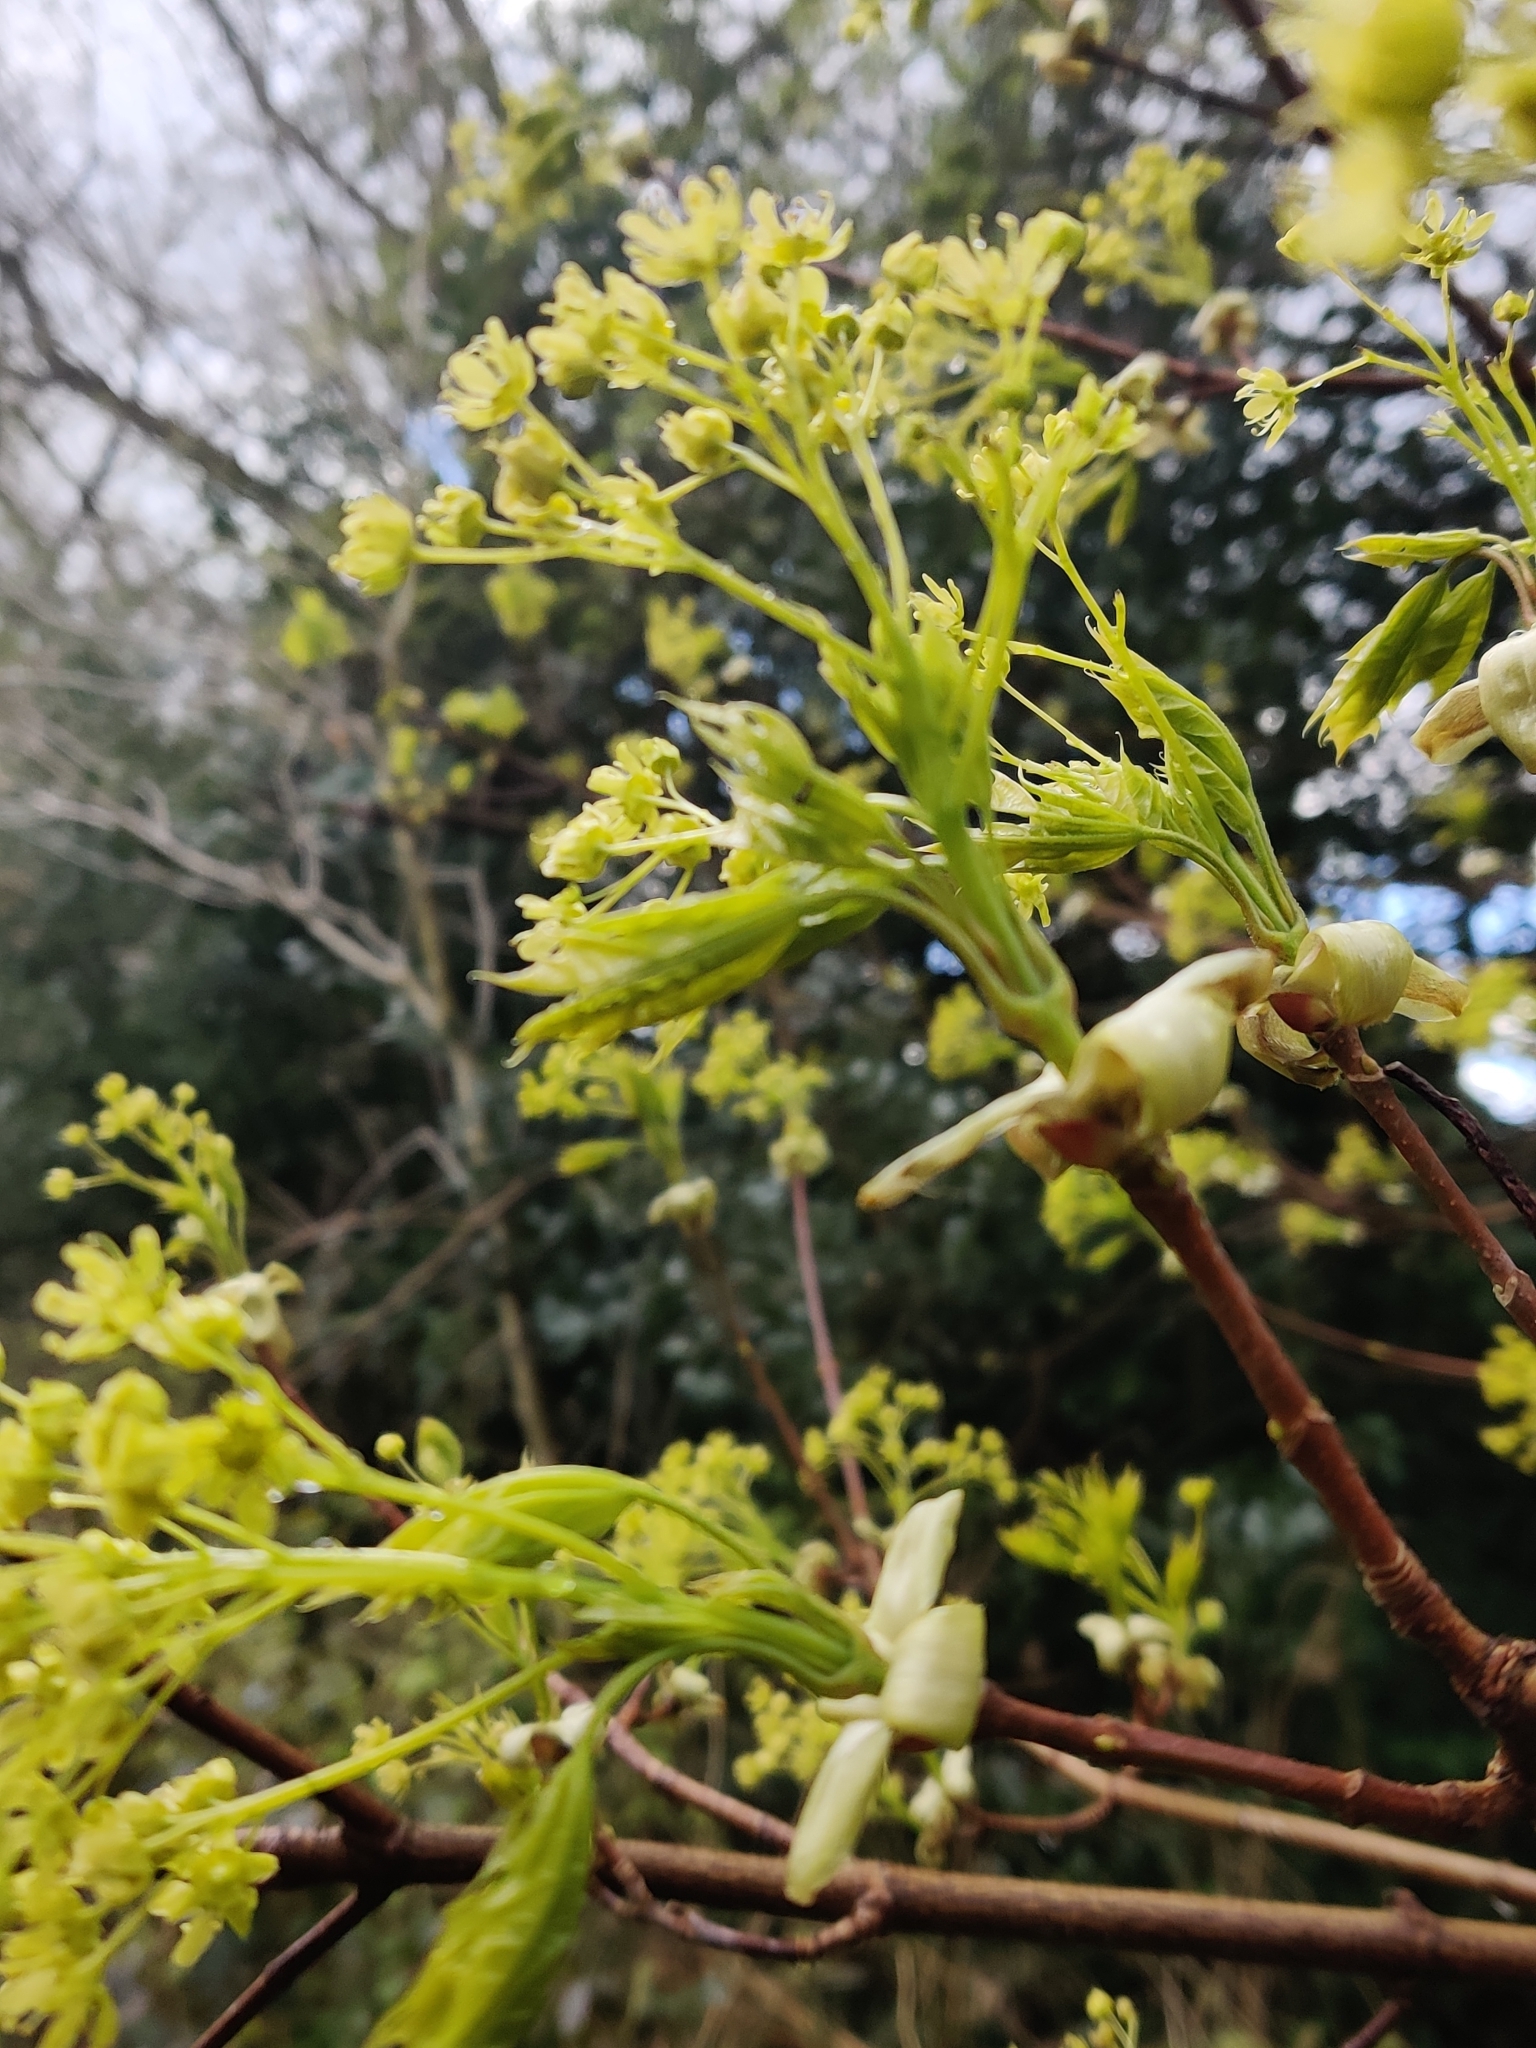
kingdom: Plantae
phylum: Tracheophyta
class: Magnoliopsida
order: Sapindales
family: Sapindaceae
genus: Acer
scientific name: Acer platanoides
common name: Norway maple
